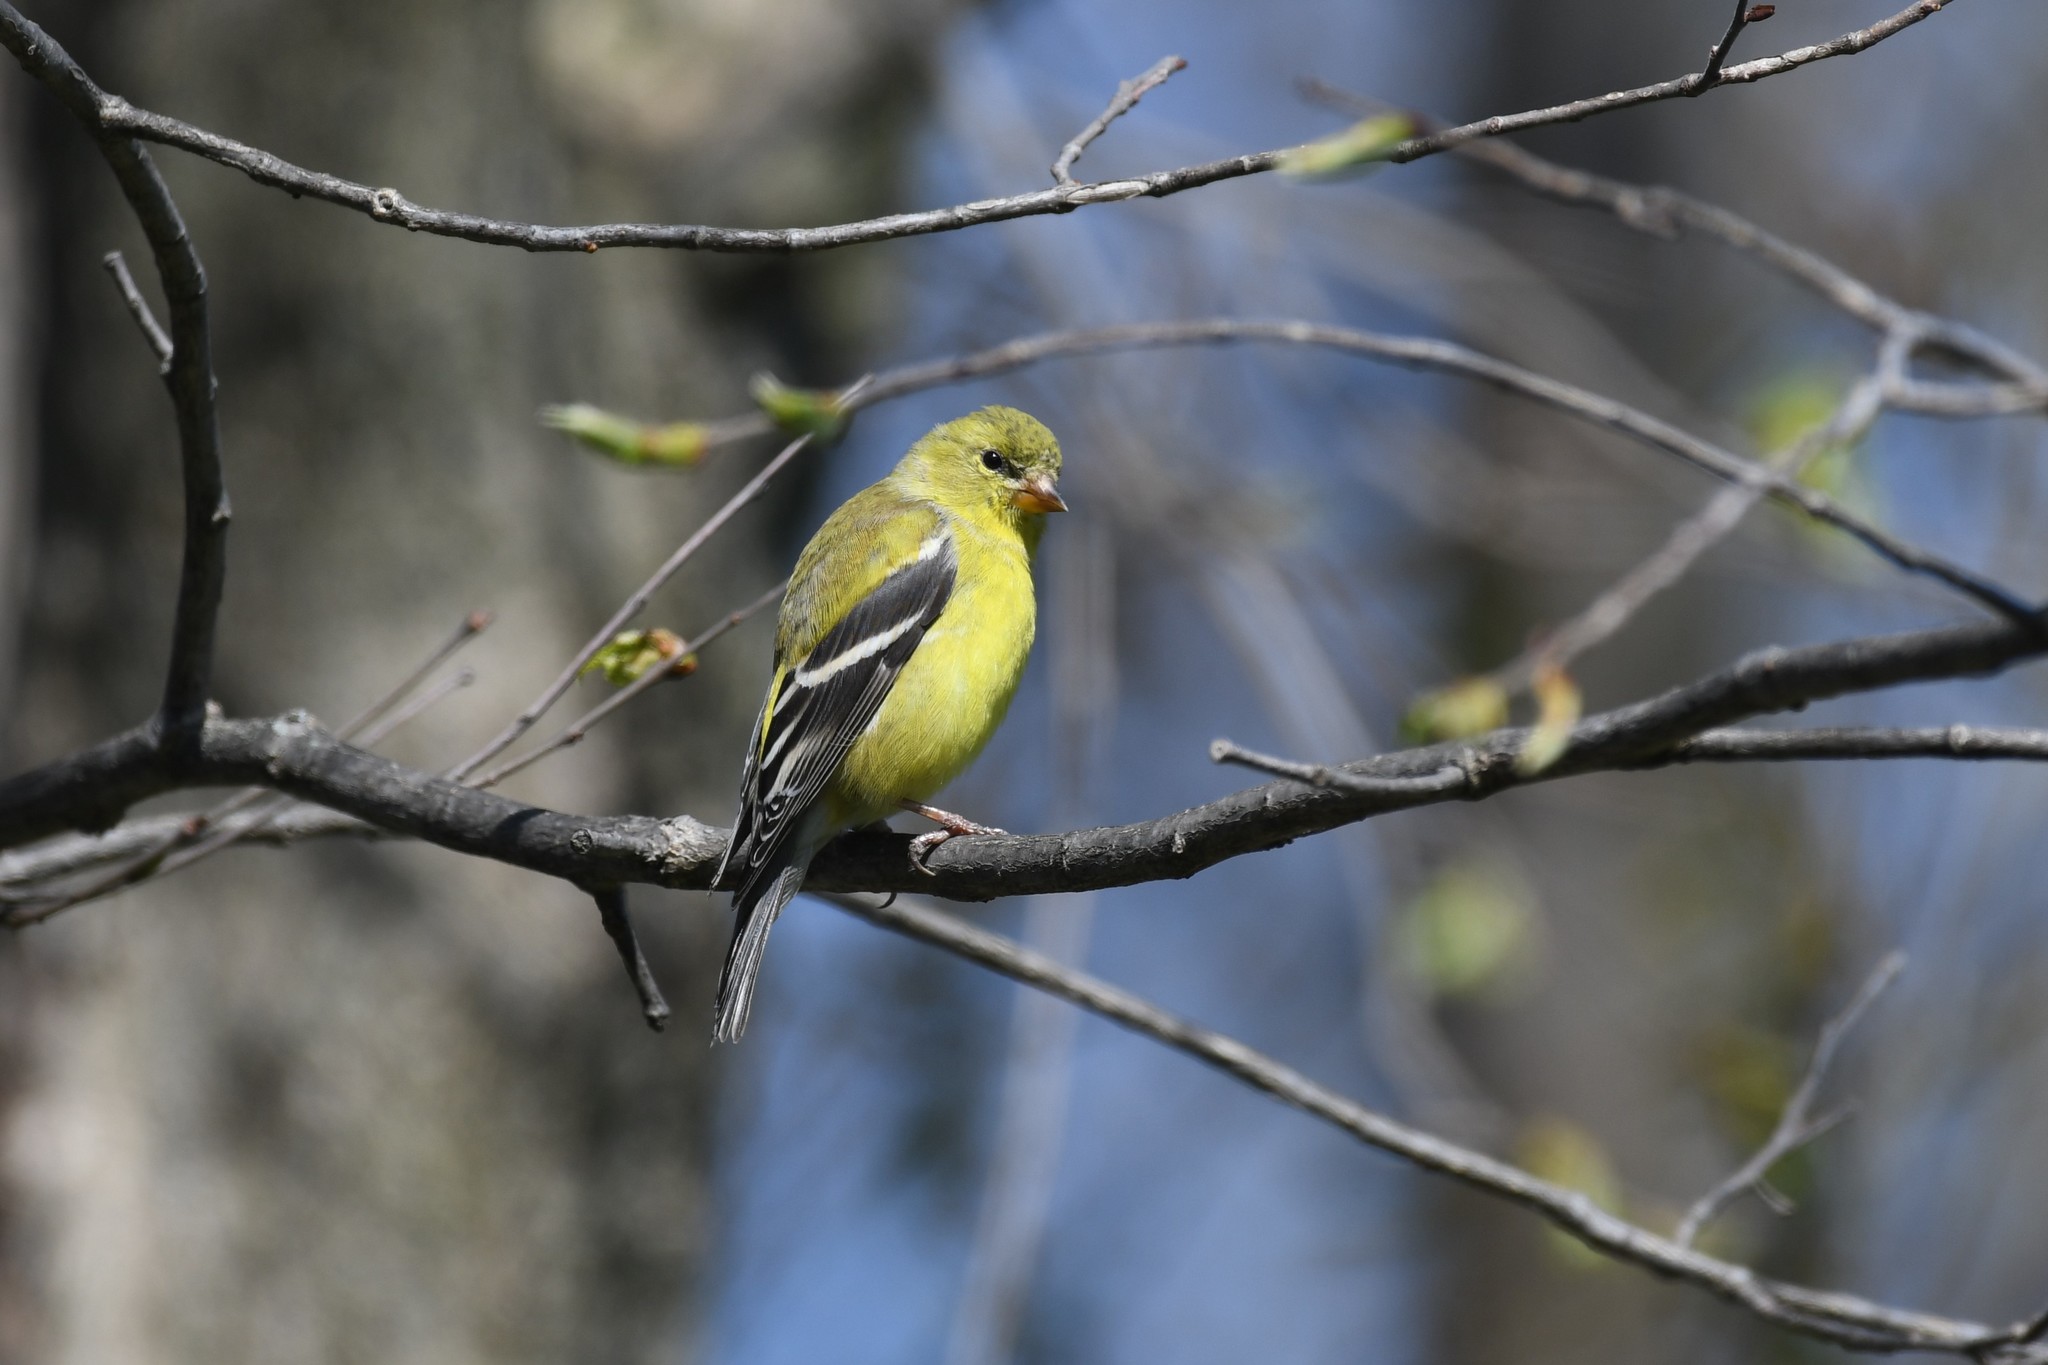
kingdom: Animalia
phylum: Chordata
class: Aves
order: Passeriformes
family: Fringillidae
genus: Spinus
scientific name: Spinus tristis
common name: American goldfinch
